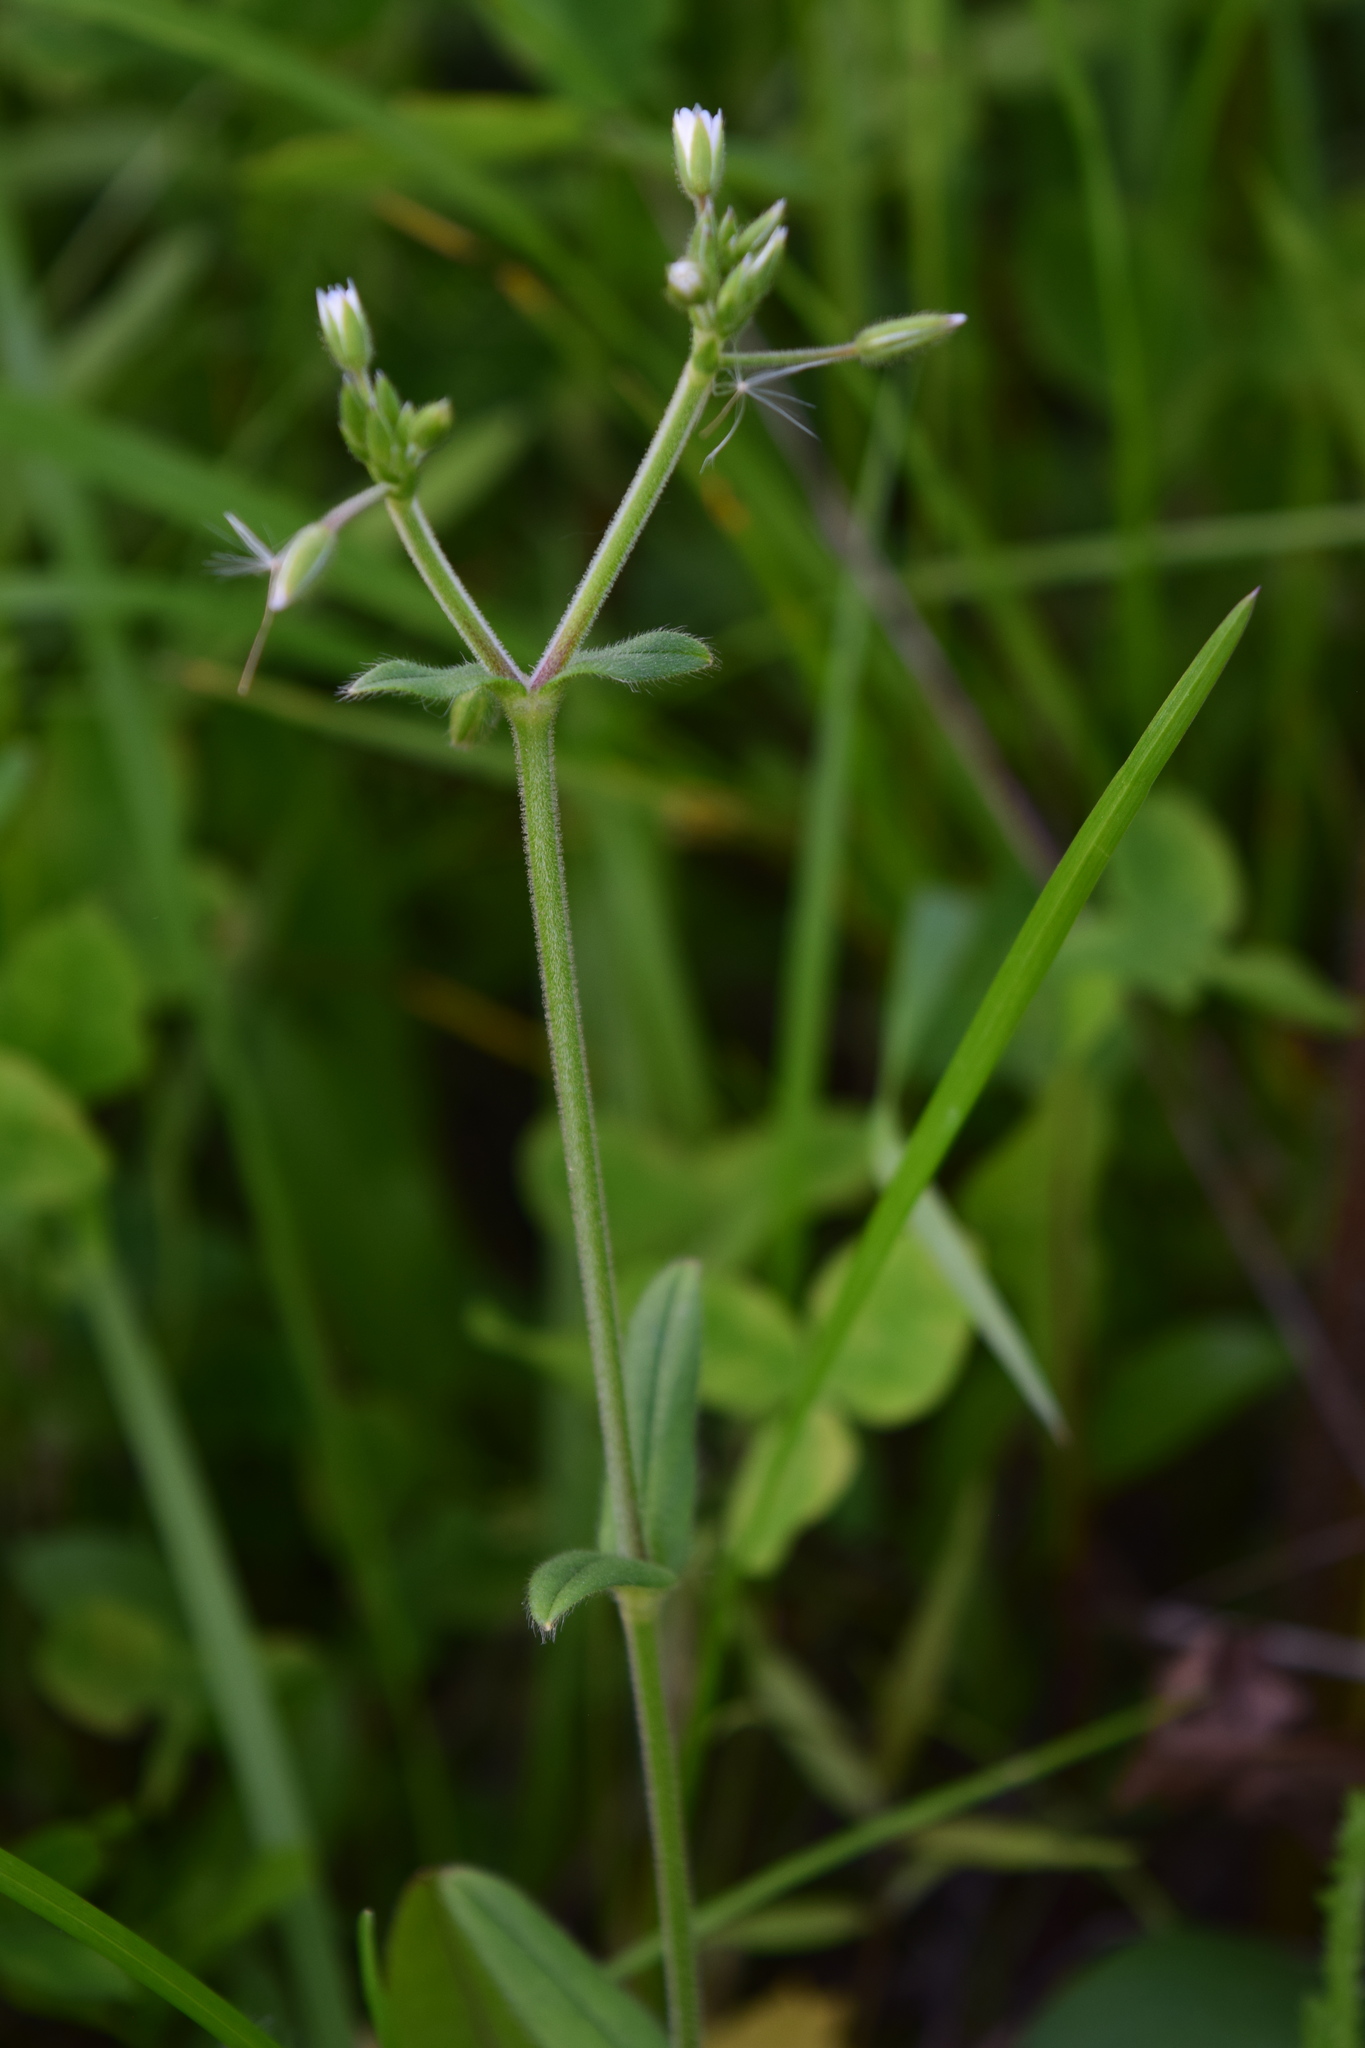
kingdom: Plantae
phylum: Tracheophyta
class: Magnoliopsida
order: Caryophyllales
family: Caryophyllaceae
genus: Cerastium
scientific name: Cerastium holosteoides
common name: Big chickweed
